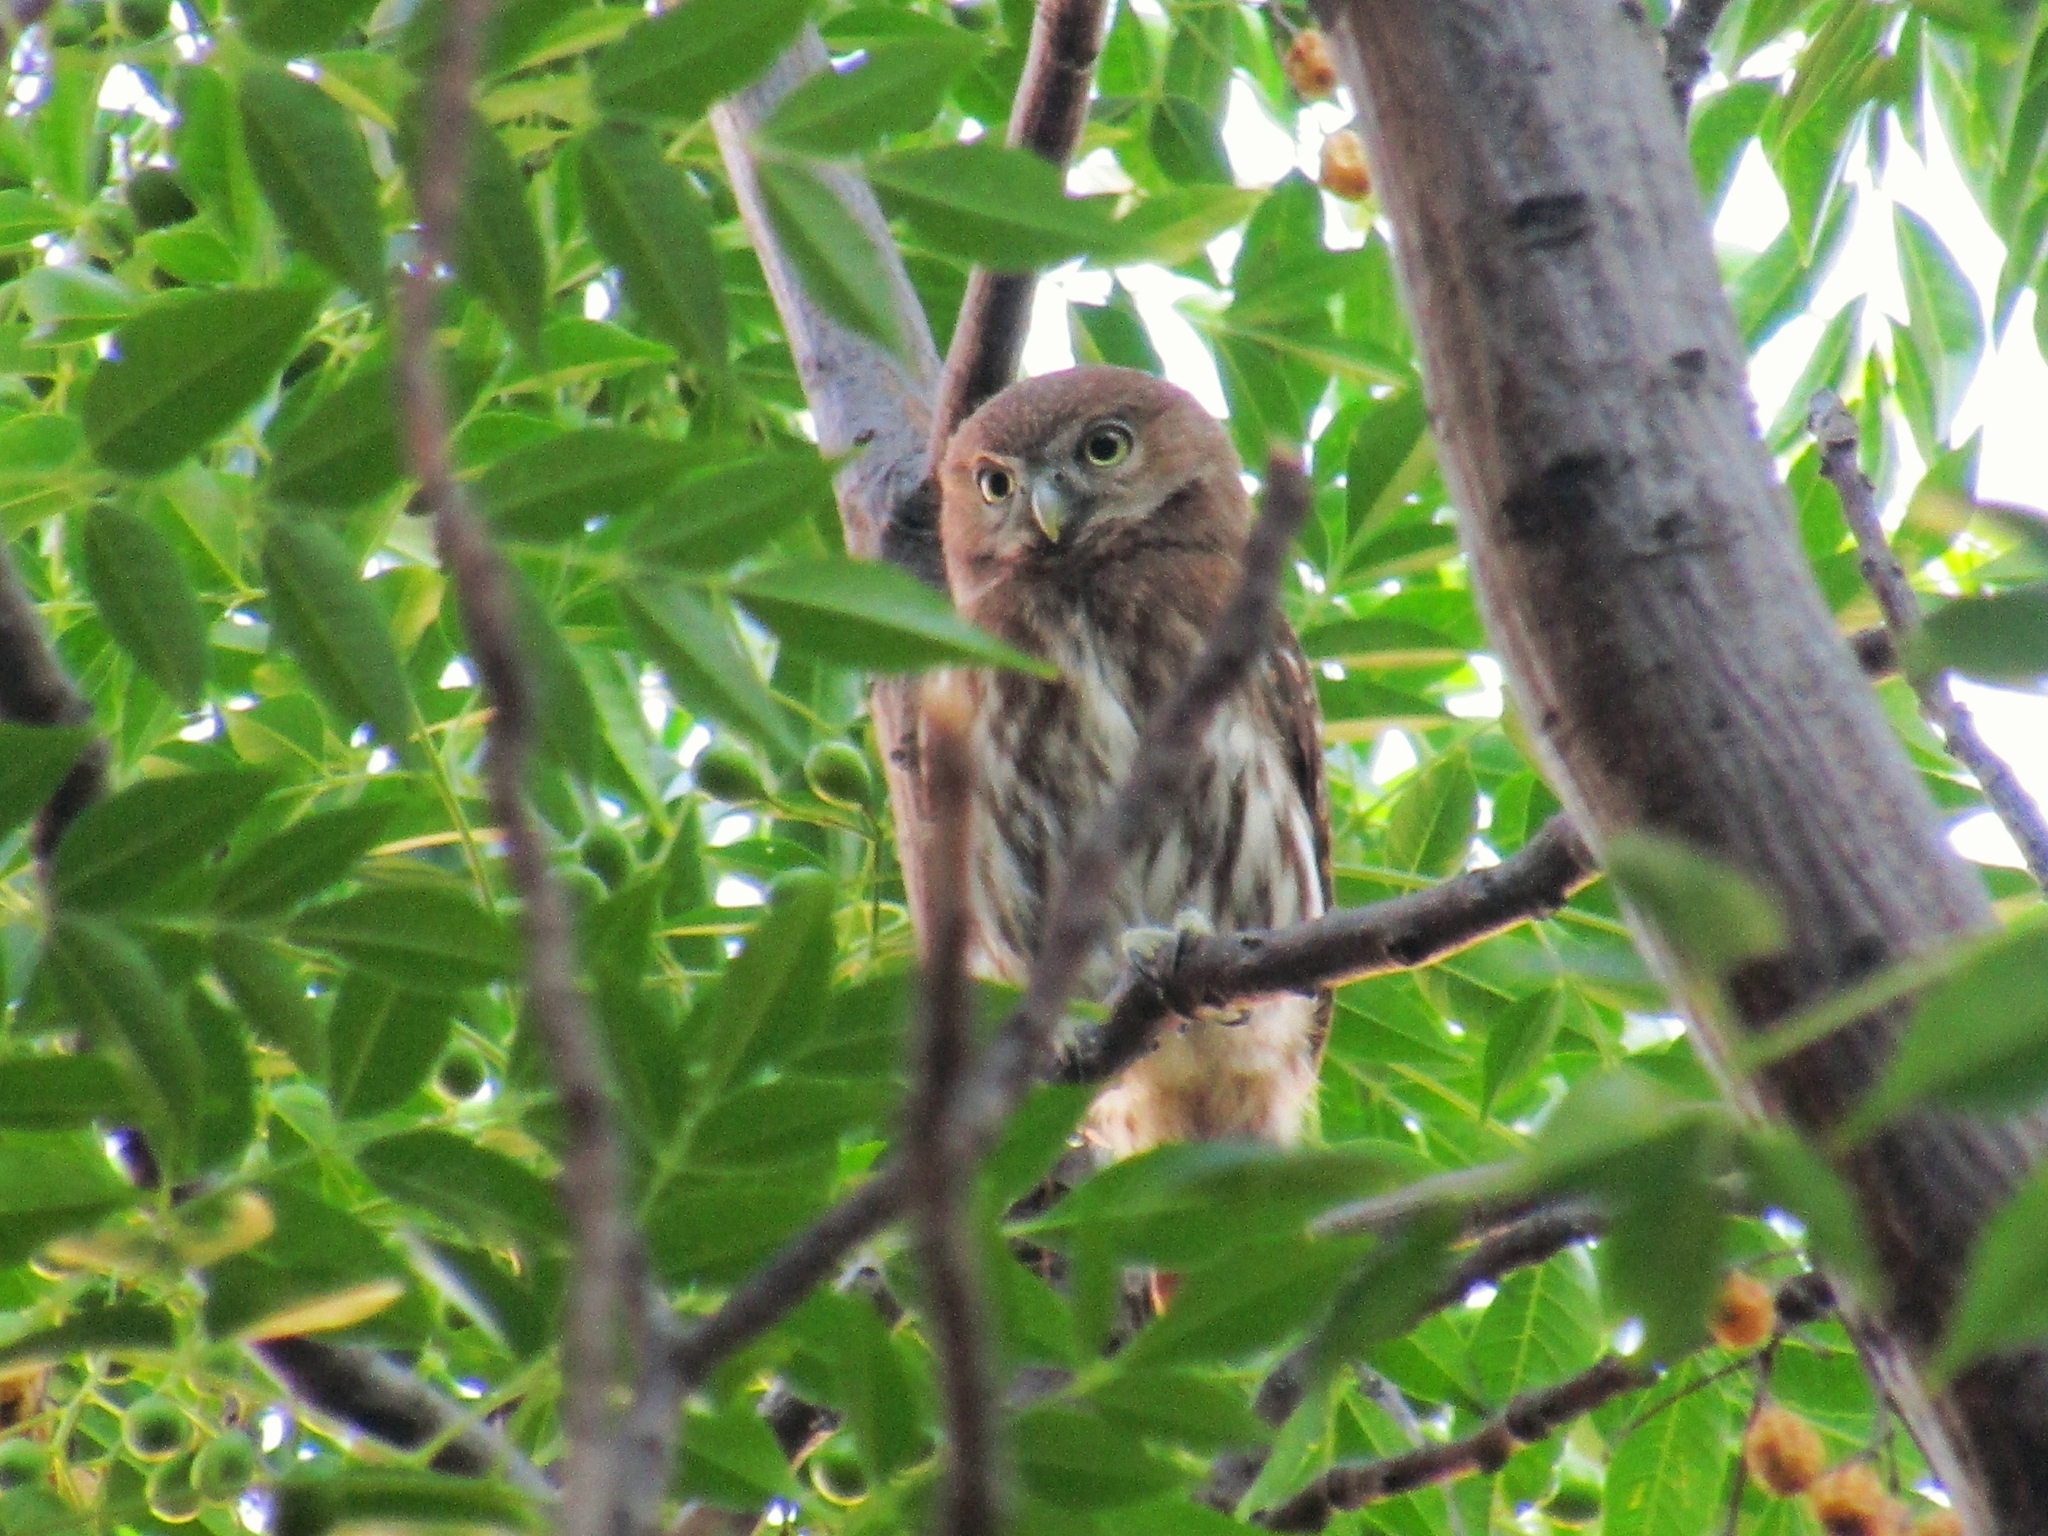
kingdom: Animalia
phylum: Chordata
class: Aves
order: Strigiformes
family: Strigidae
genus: Glaucidium
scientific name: Glaucidium brasilianum
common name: Ferruginous pygmy-owl
